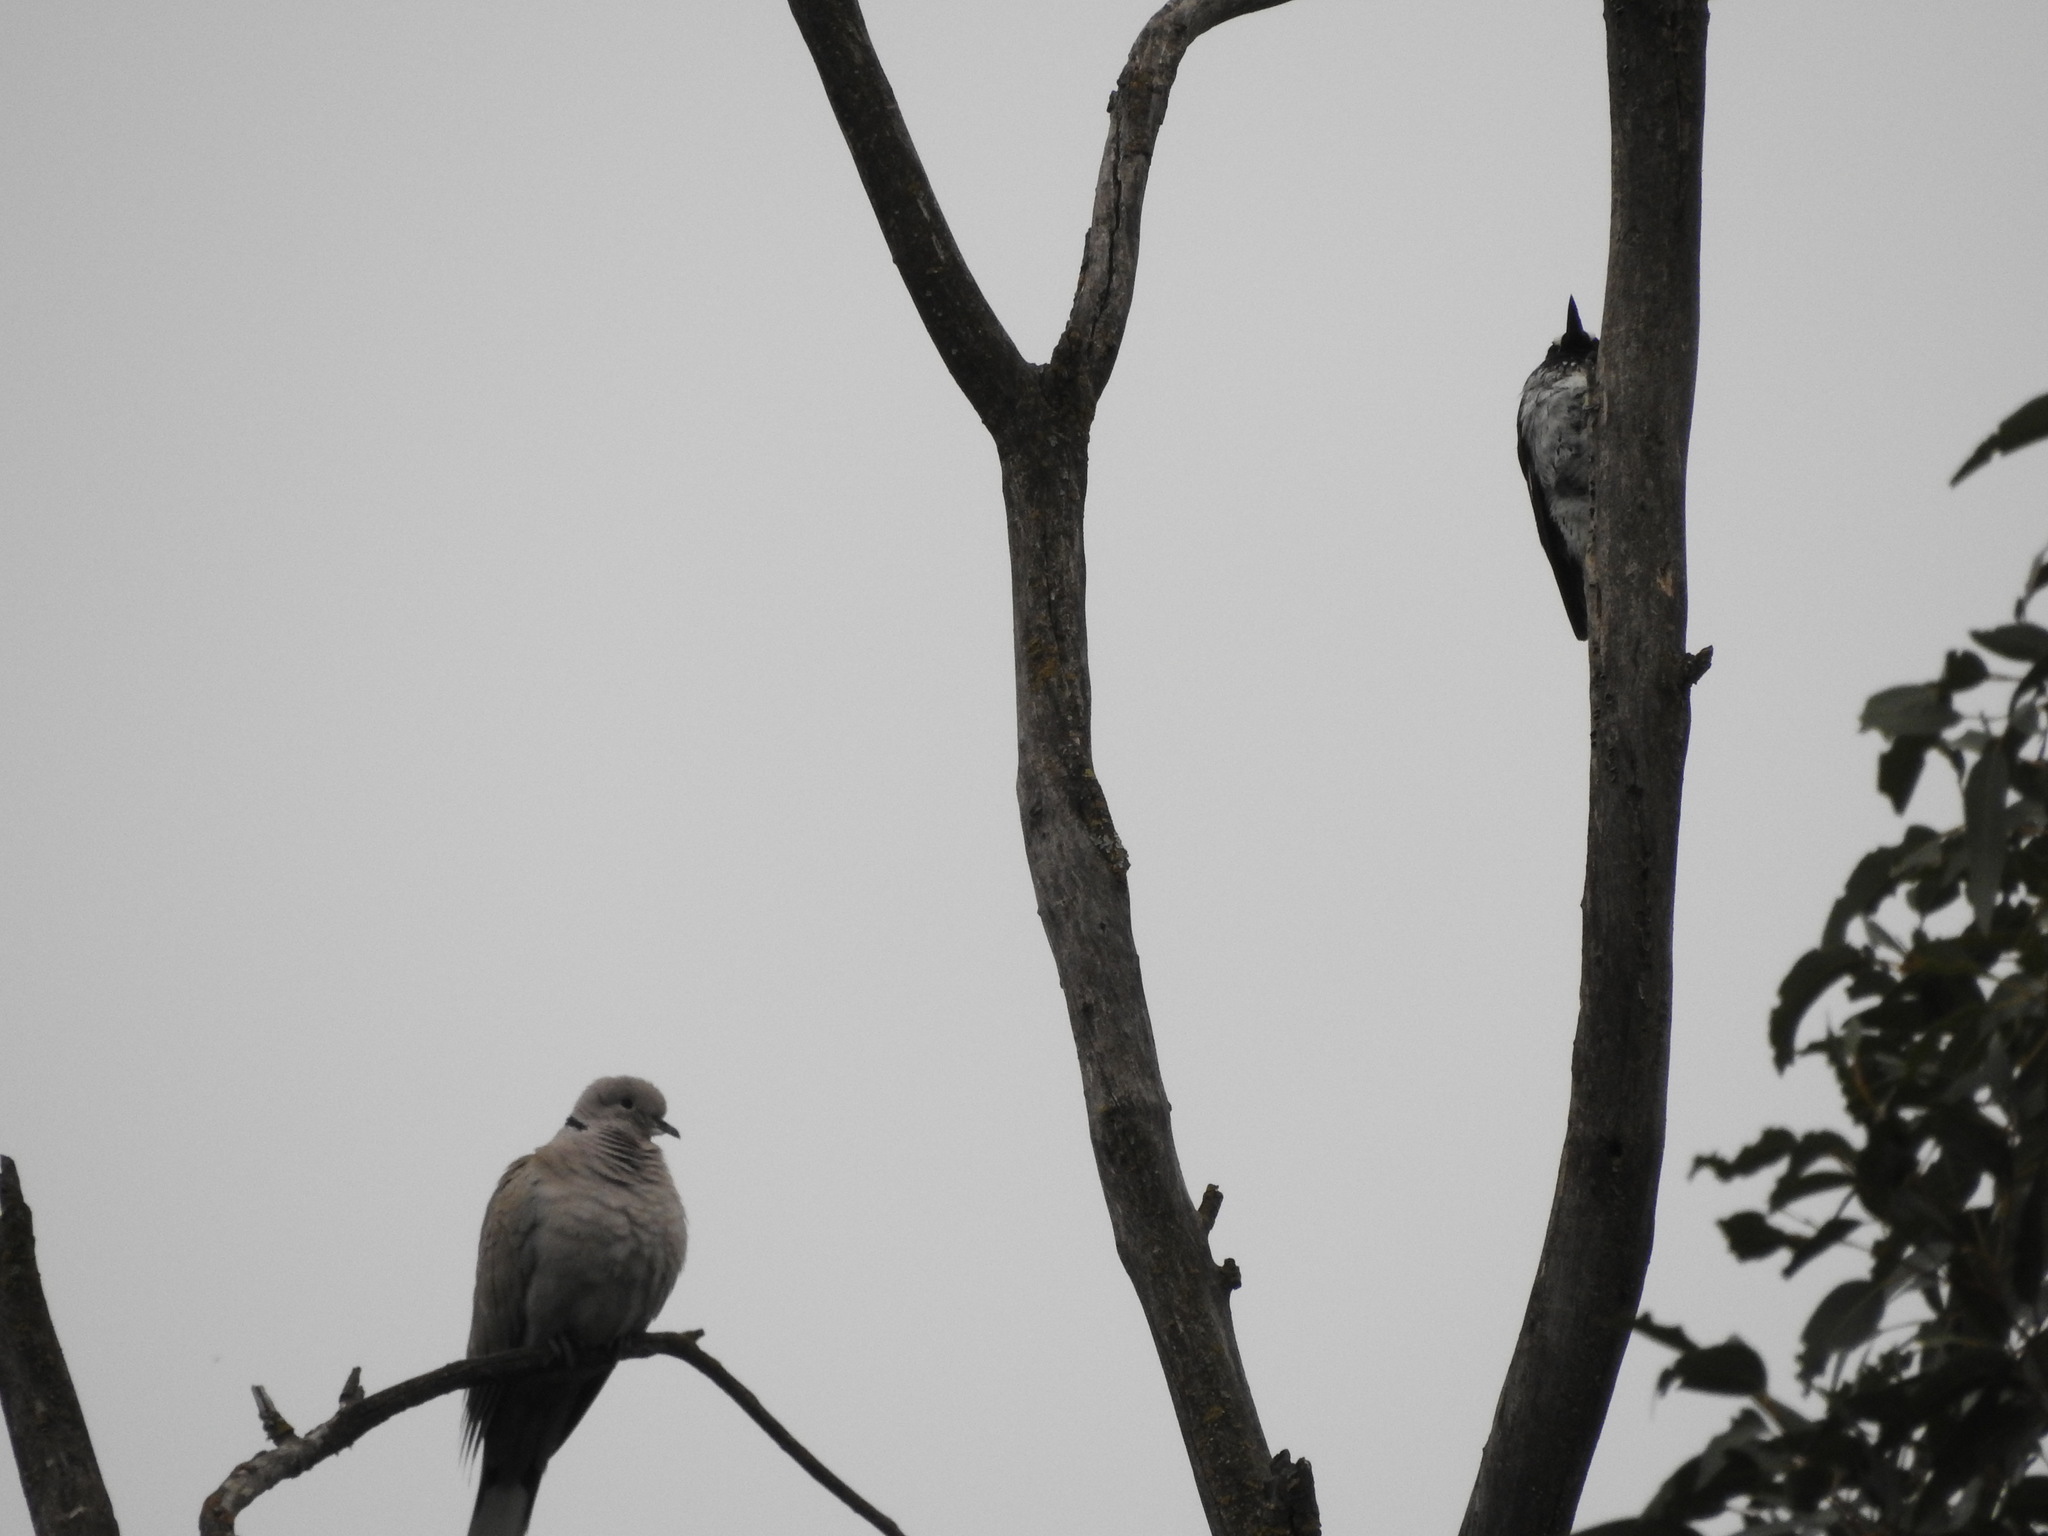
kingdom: Animalia
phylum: Chordata
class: Aves
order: Columbiformes
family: Columbidae
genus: Streptopelia
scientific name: Streptopelia decaocto
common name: Eurasian collared dove
